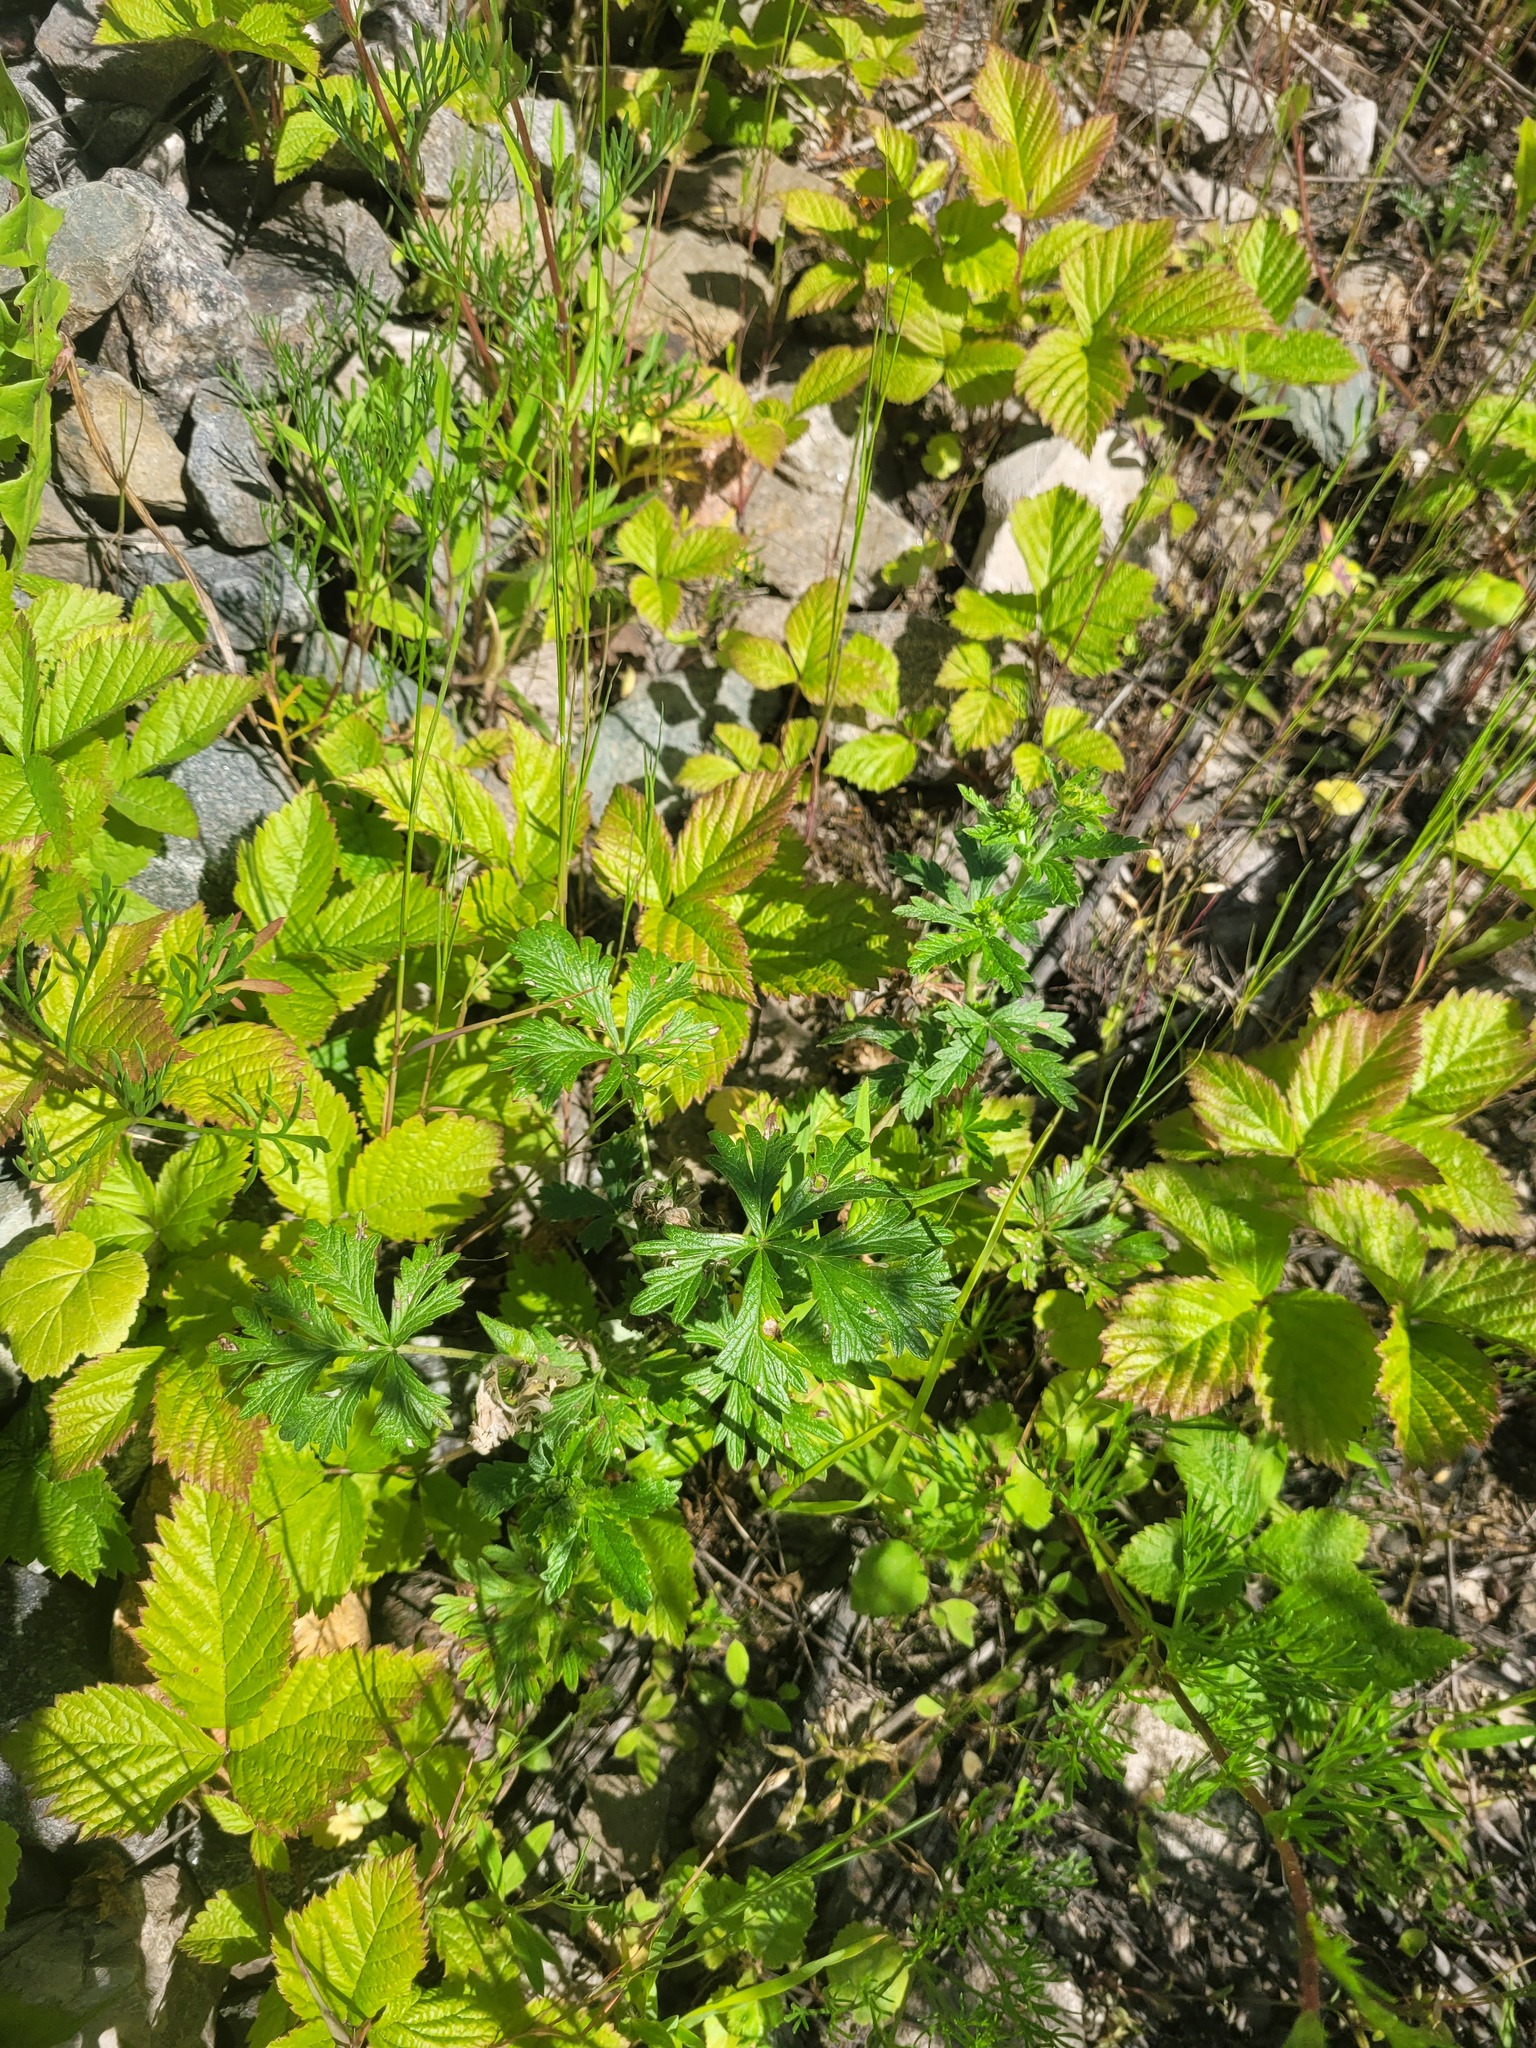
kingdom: Plantae
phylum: Tracheophyta
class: Magnoliopsida
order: Rosales
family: Rosaceae
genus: Potentilla
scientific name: Potentilla intermedia
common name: Downy cinquefoil
